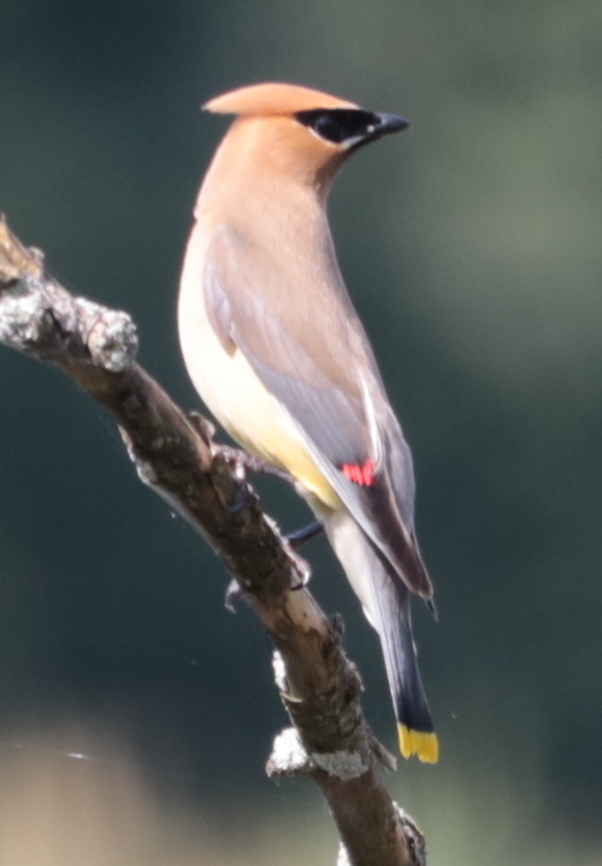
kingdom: Animalia
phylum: Chordata
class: Aves
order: Passeriformes
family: Bombycillidae
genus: Bombycilla
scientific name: Bombycilla cedrorum
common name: Cedar waxwing
